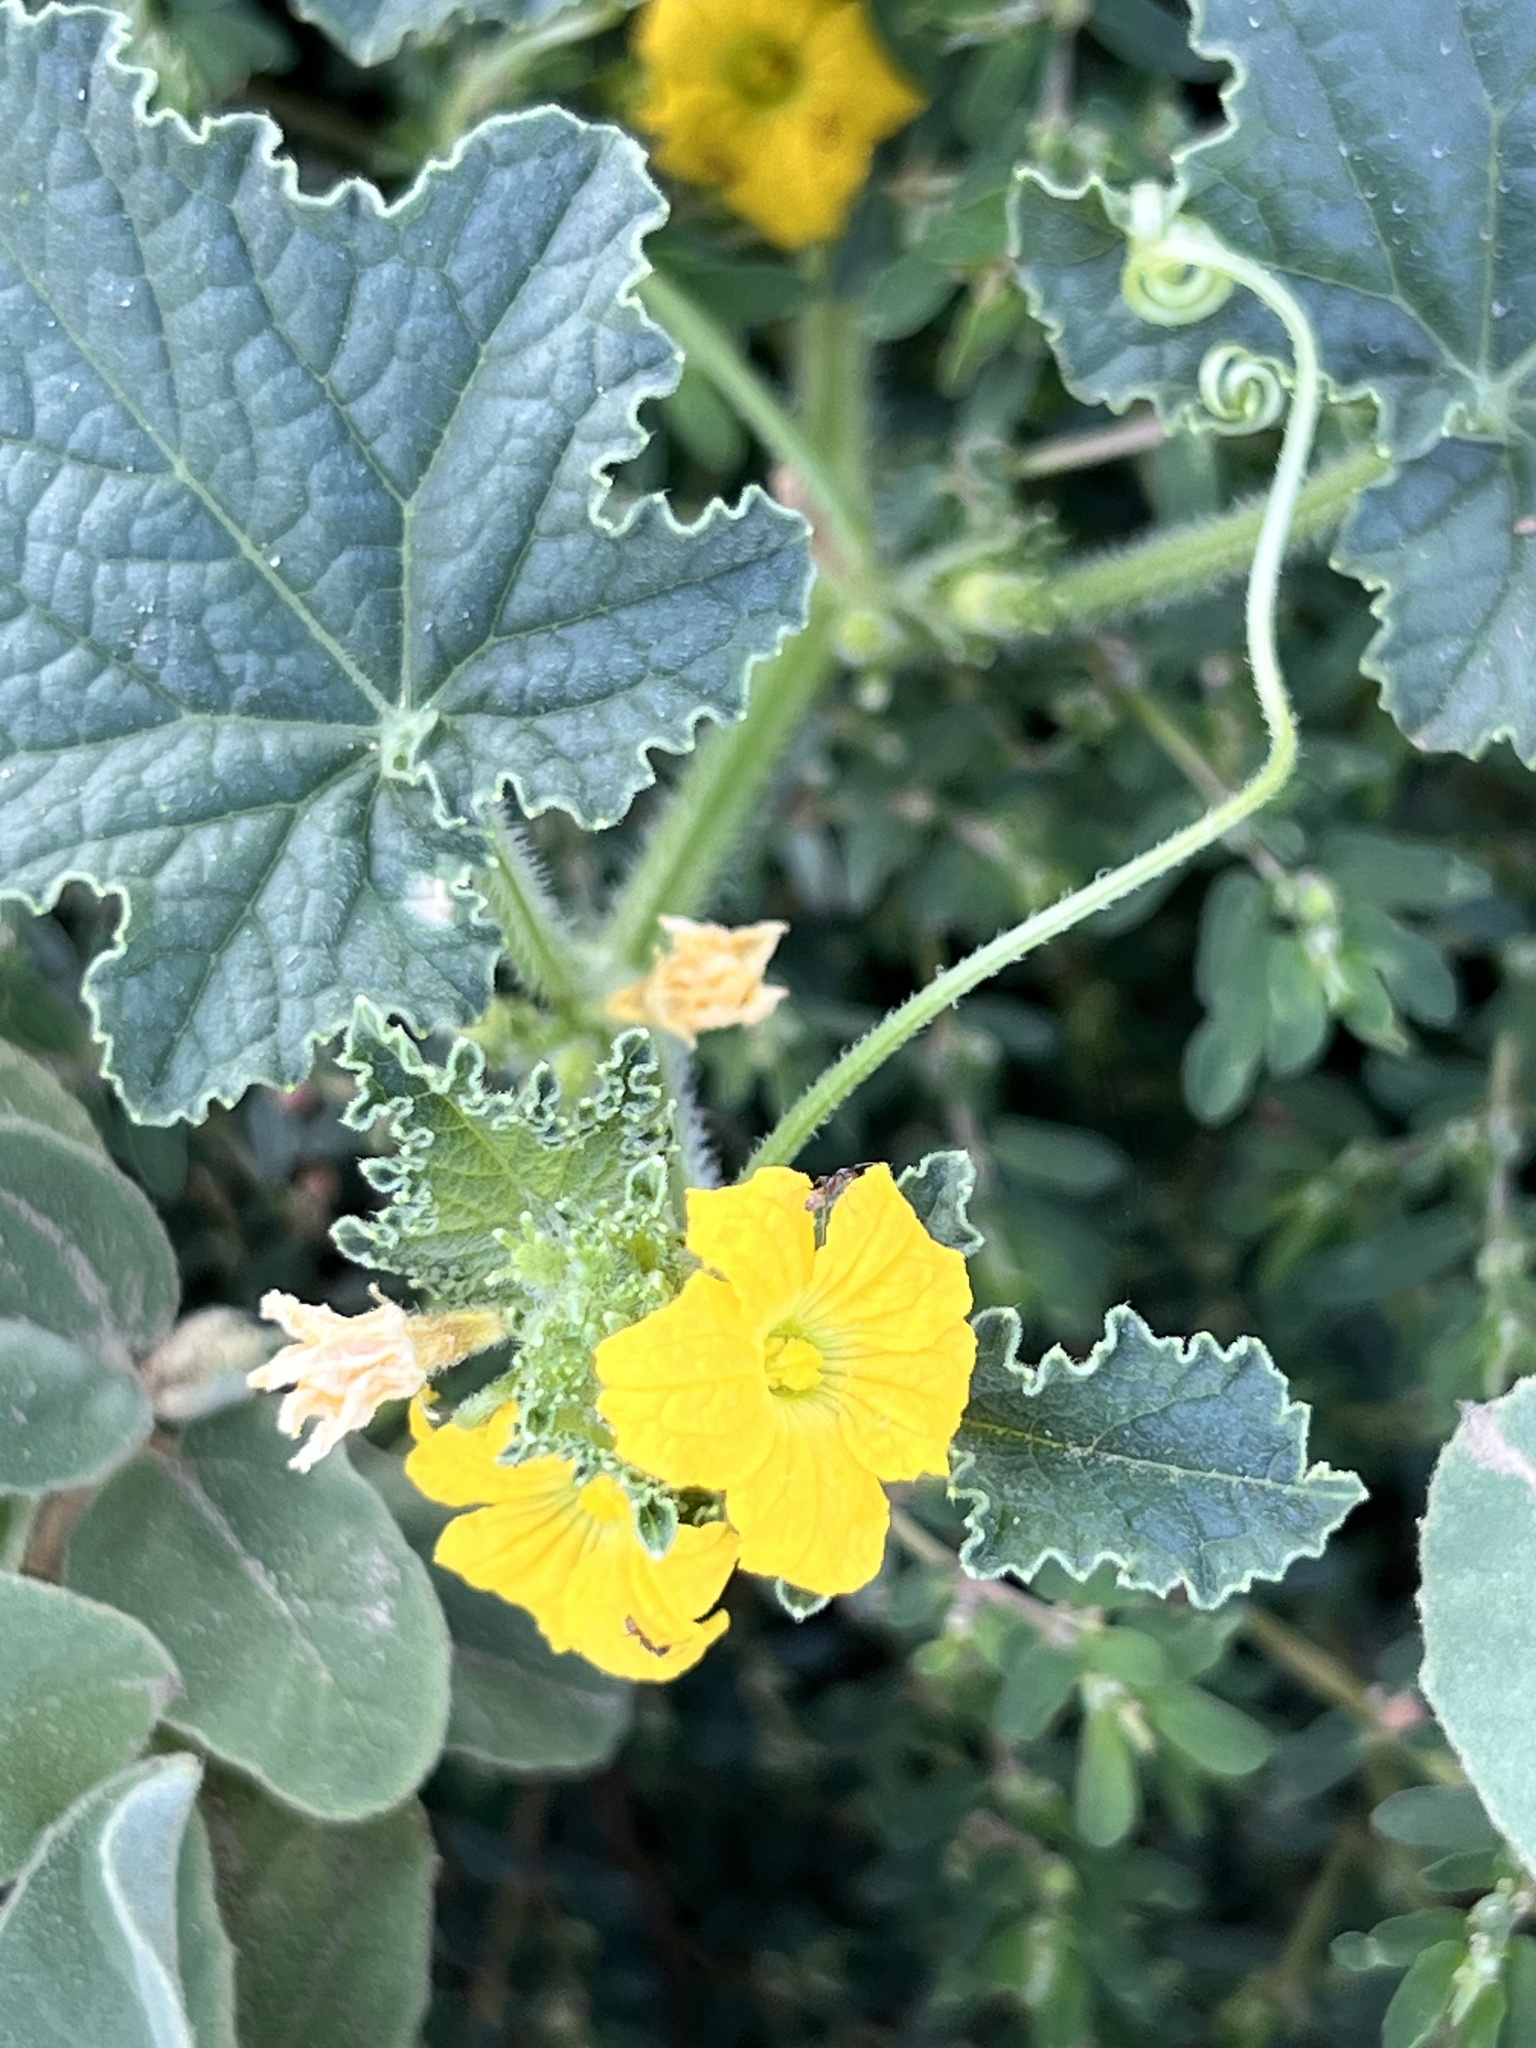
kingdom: Plantae
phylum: Tracheophyta
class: Magnoliopsida
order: Cucurbitales
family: Cucurbitaceae
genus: Cucumis
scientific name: Cucumis melo
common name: Melon
